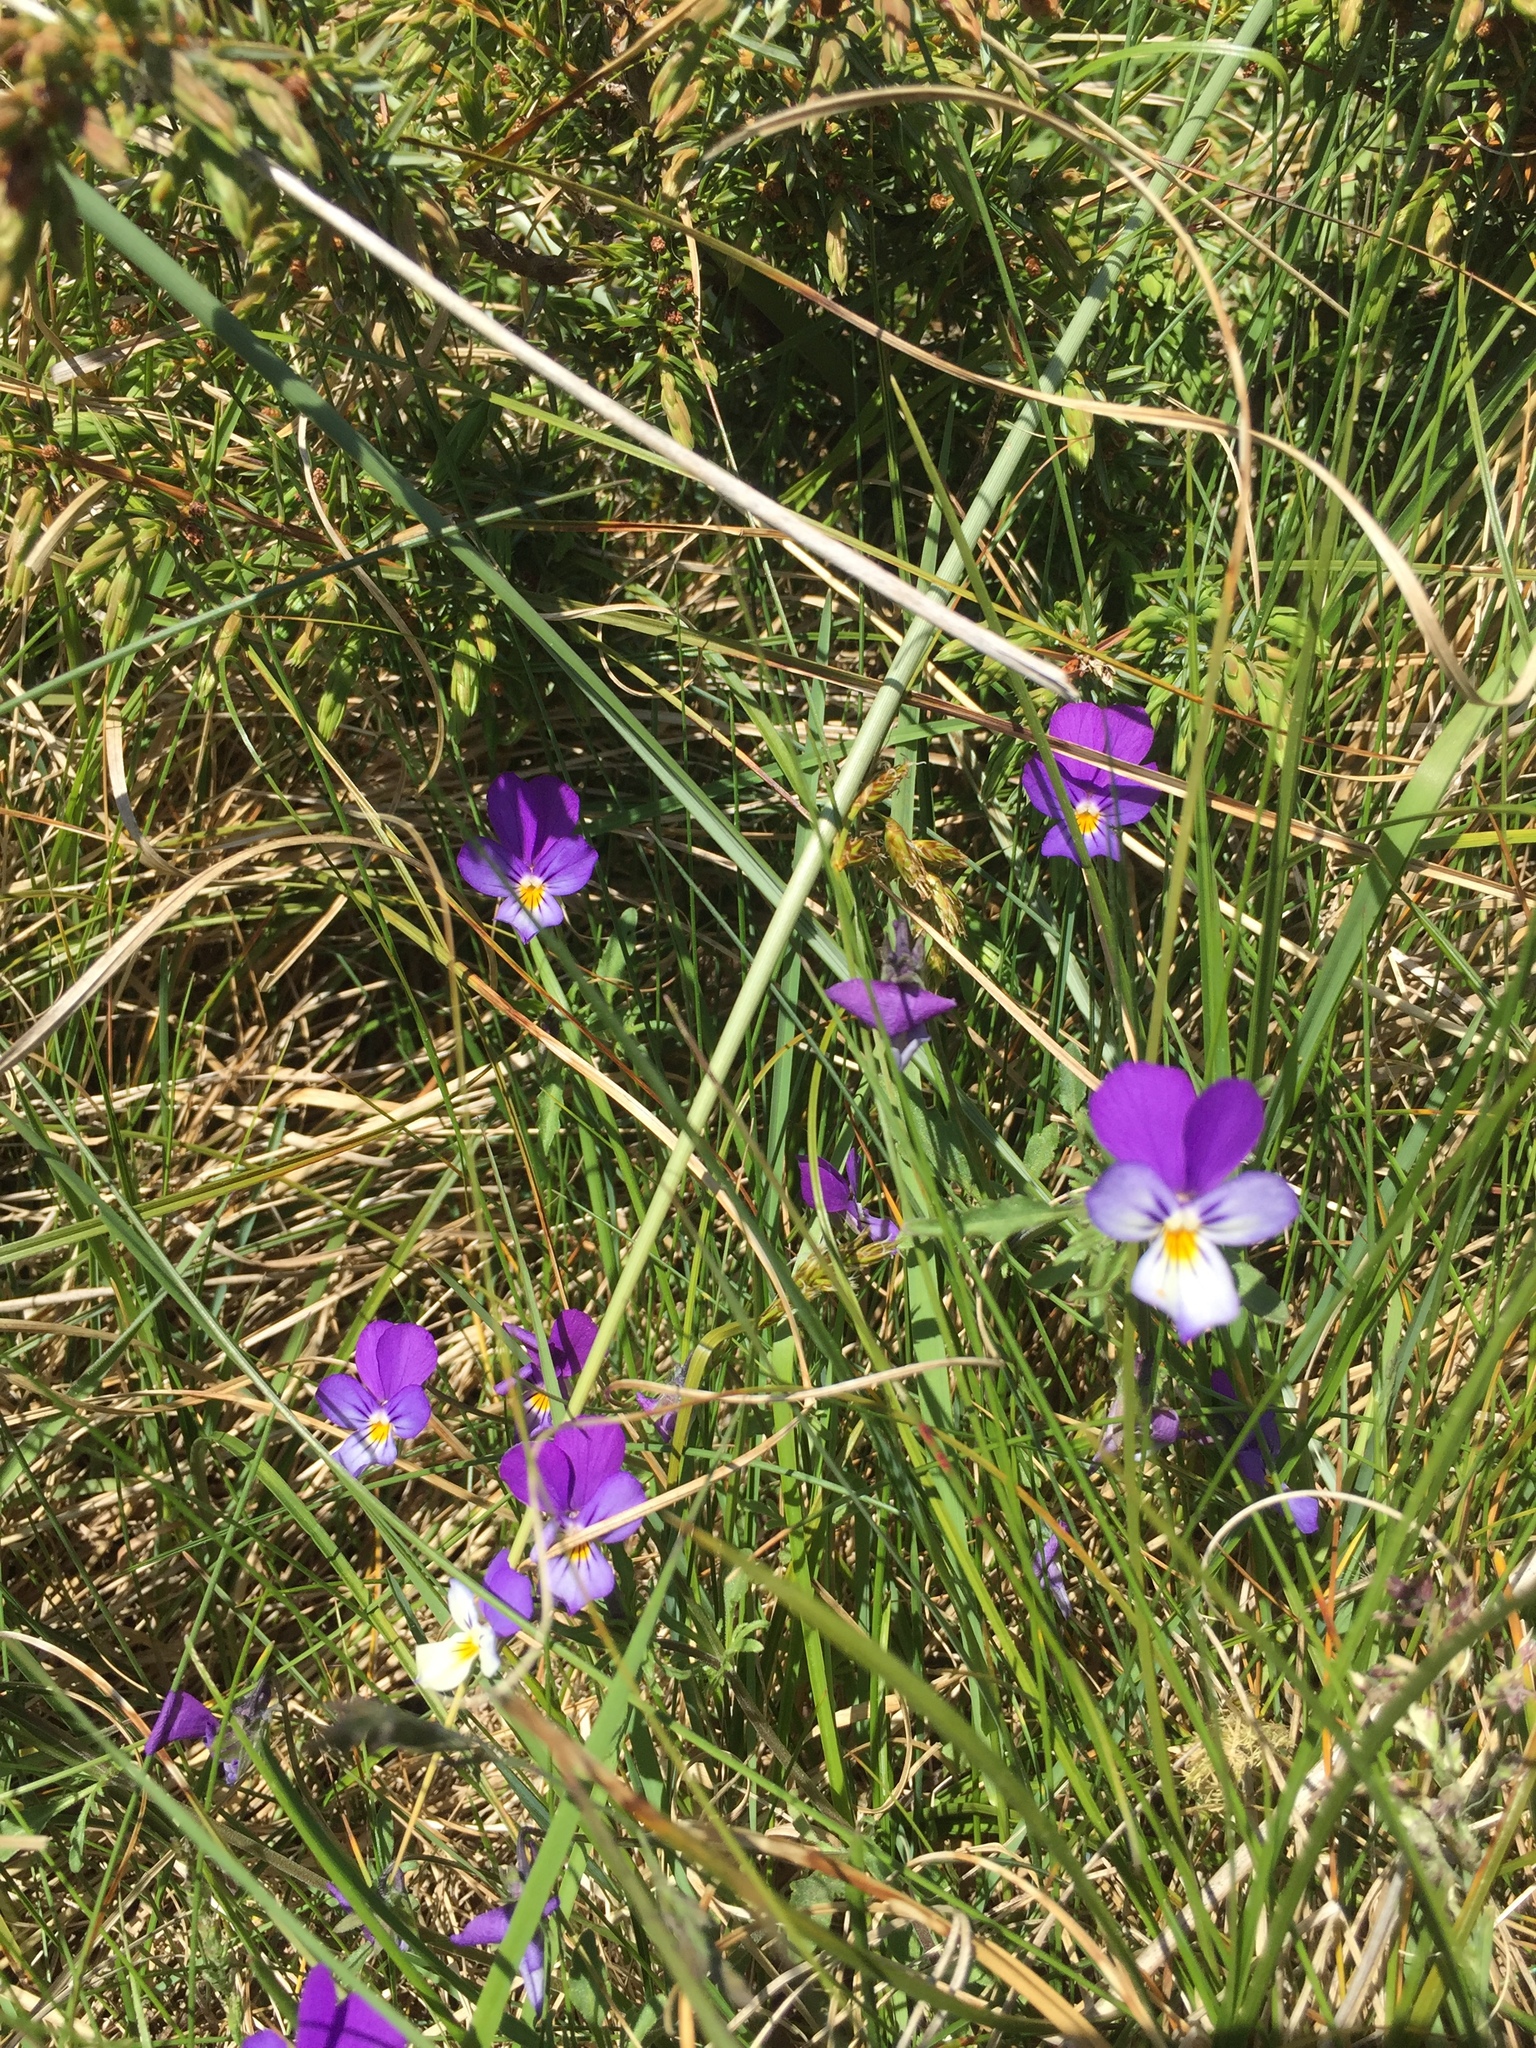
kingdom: Plantae
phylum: Tracheophyta
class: Magnoliopsida
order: Malpighiales
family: Violaceae
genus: Viola
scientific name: Viola tricolor
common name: Pansy
